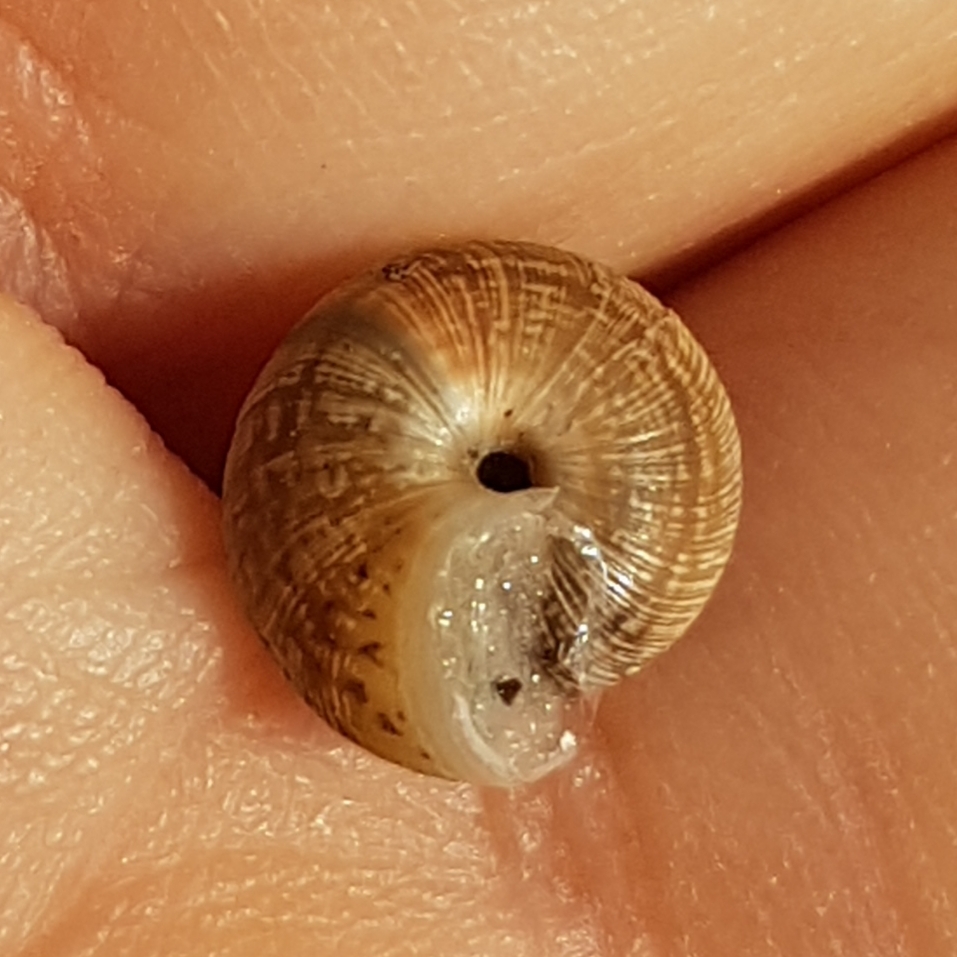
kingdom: Animalia
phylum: Mollusca
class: Gastropoda
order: Stylommatophora
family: Geomitridae
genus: Xeroplexa
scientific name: Xeroplexa intersecta
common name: Wrinkled snail
